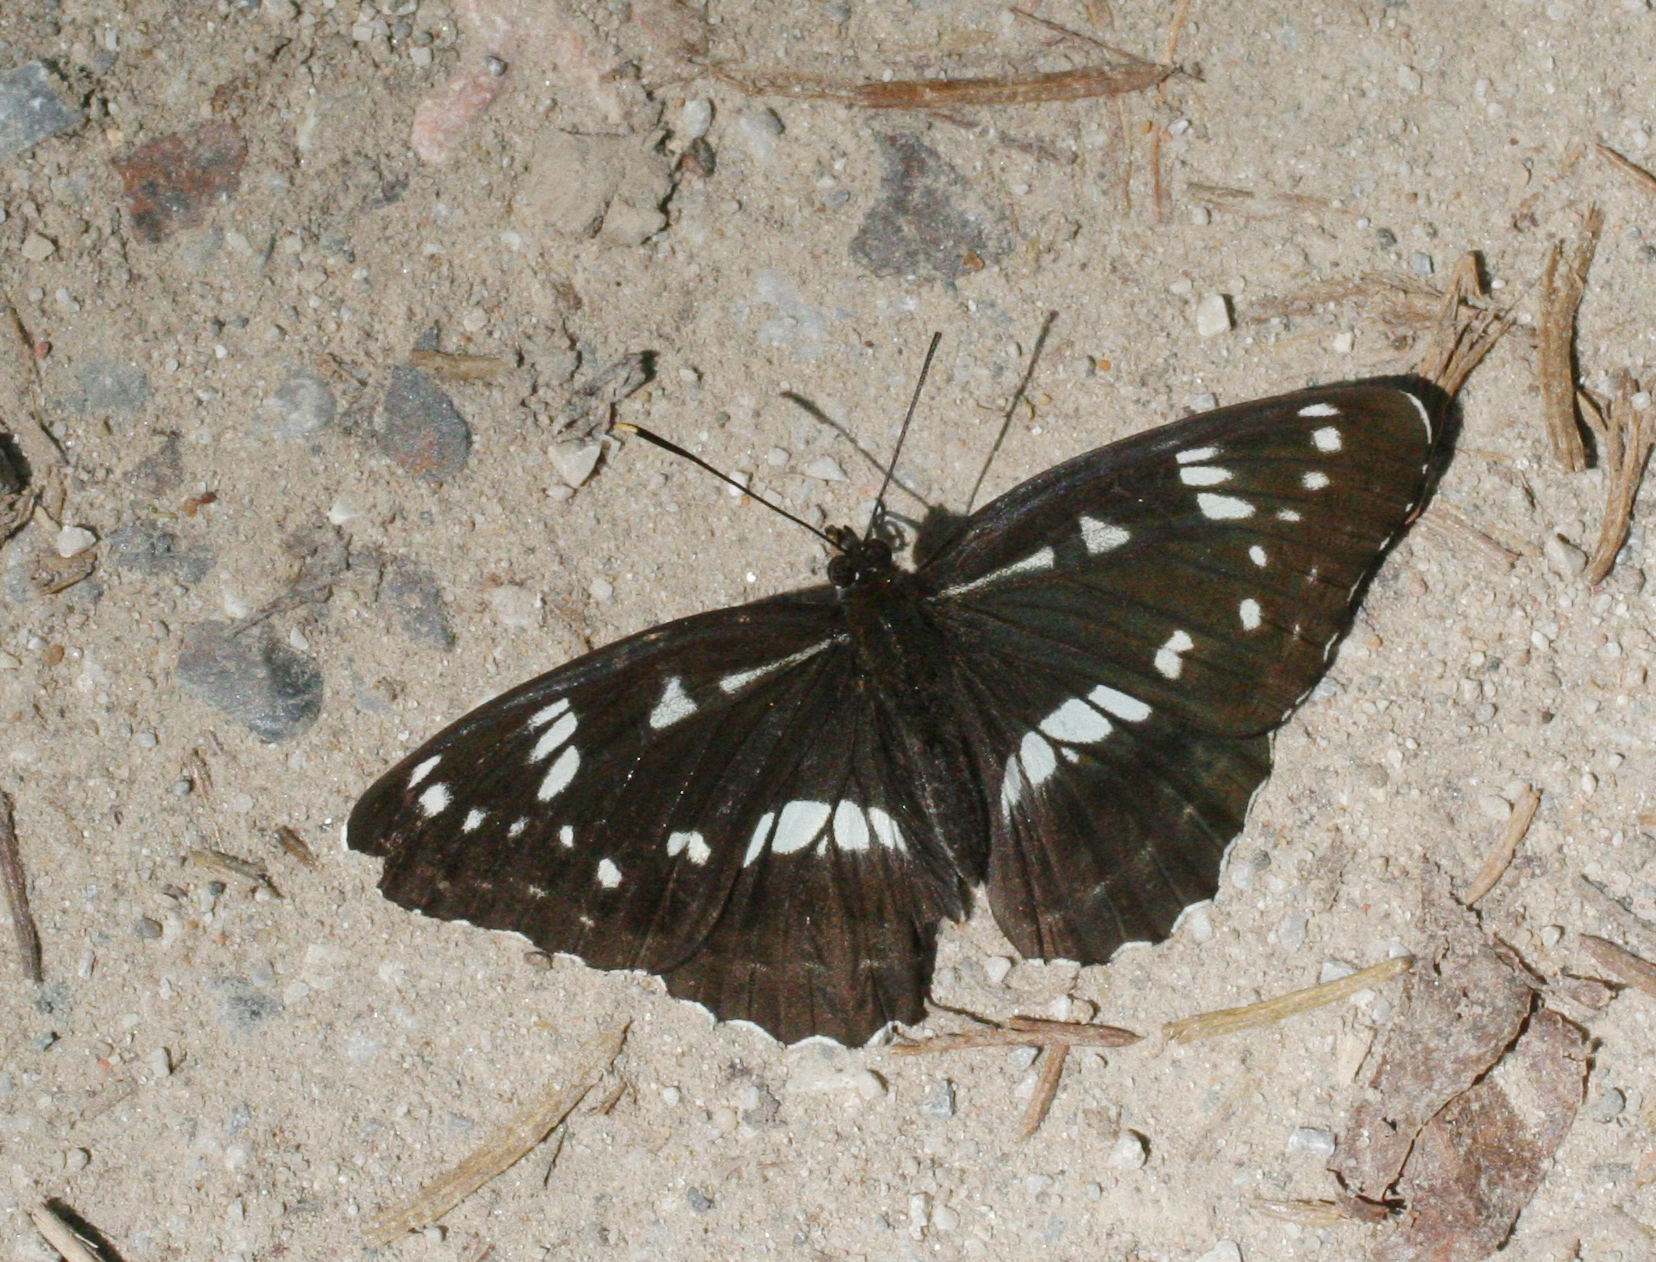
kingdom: Animalia
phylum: Arthropoda
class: Insecta
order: Lepidoptera
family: Nymphalidae
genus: Limenitis
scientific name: Limenitis helmanni
